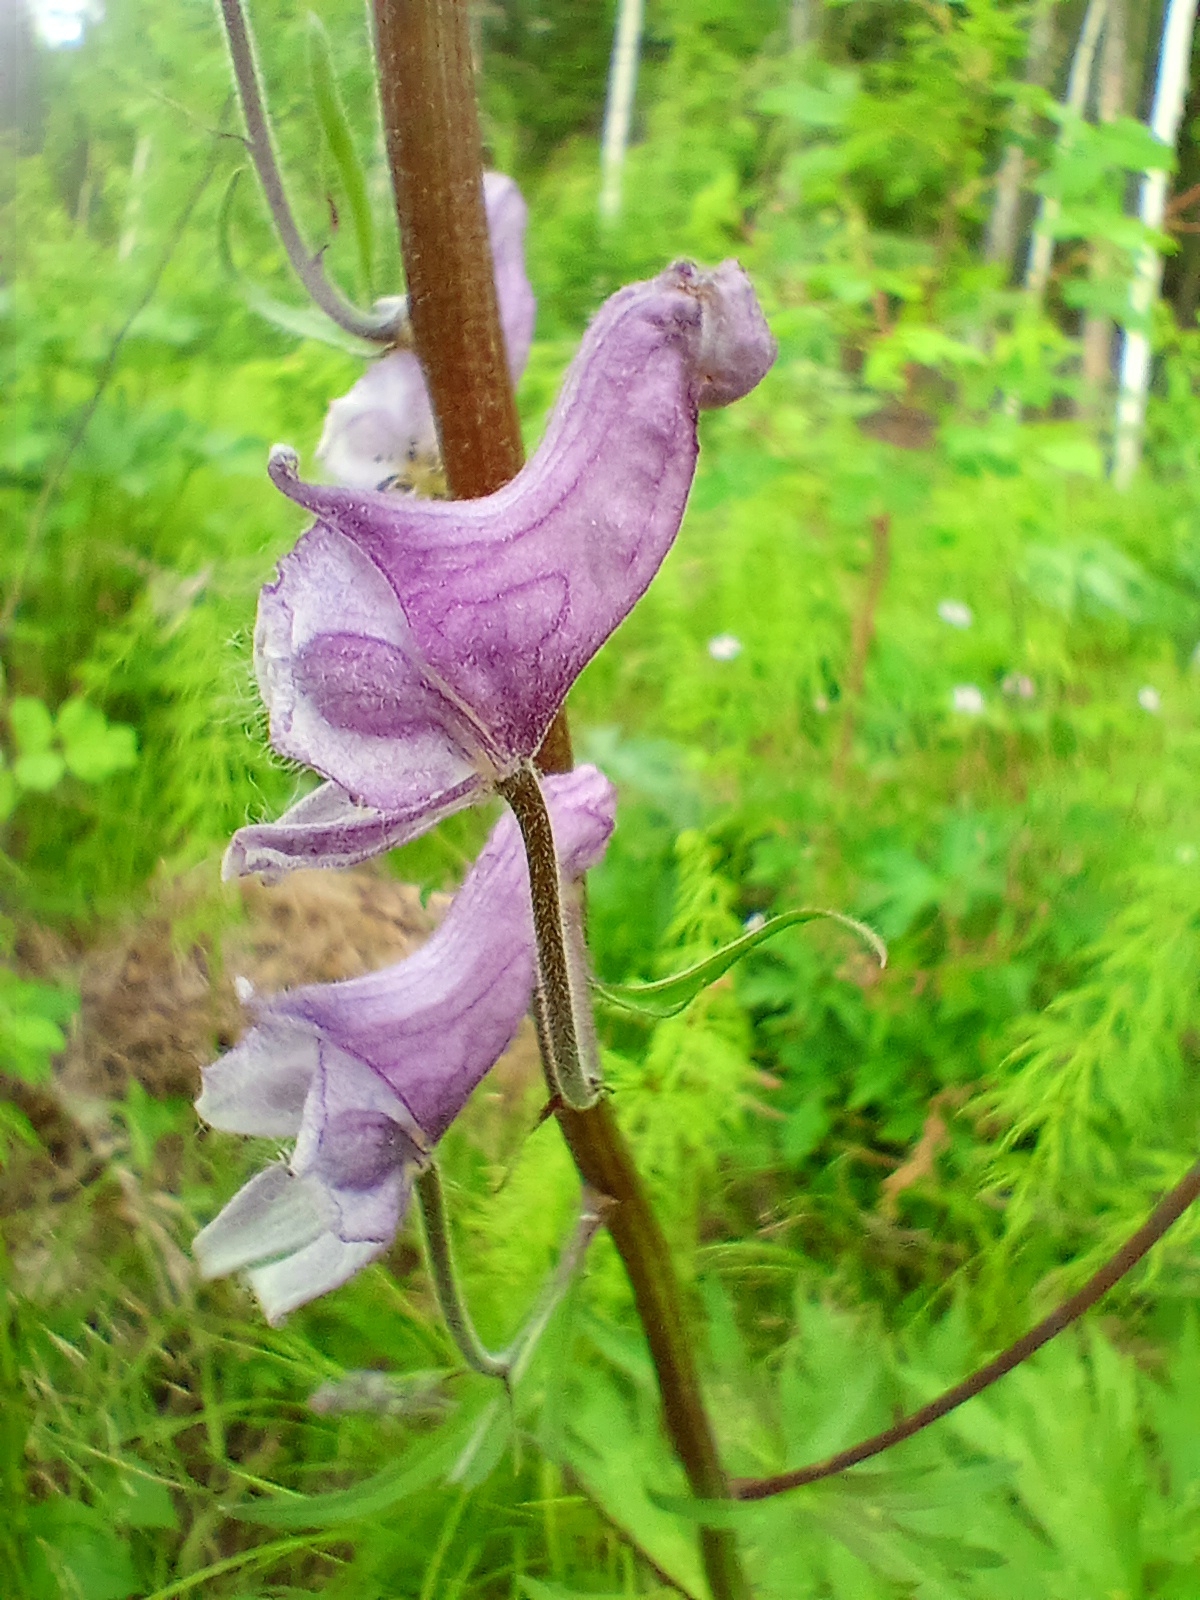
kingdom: Plantae
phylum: Tracheophyta
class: Magnoliopsida
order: Ranunculales
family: Ranunculaceae
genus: Aconitum
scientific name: Aconitum septentrionale
